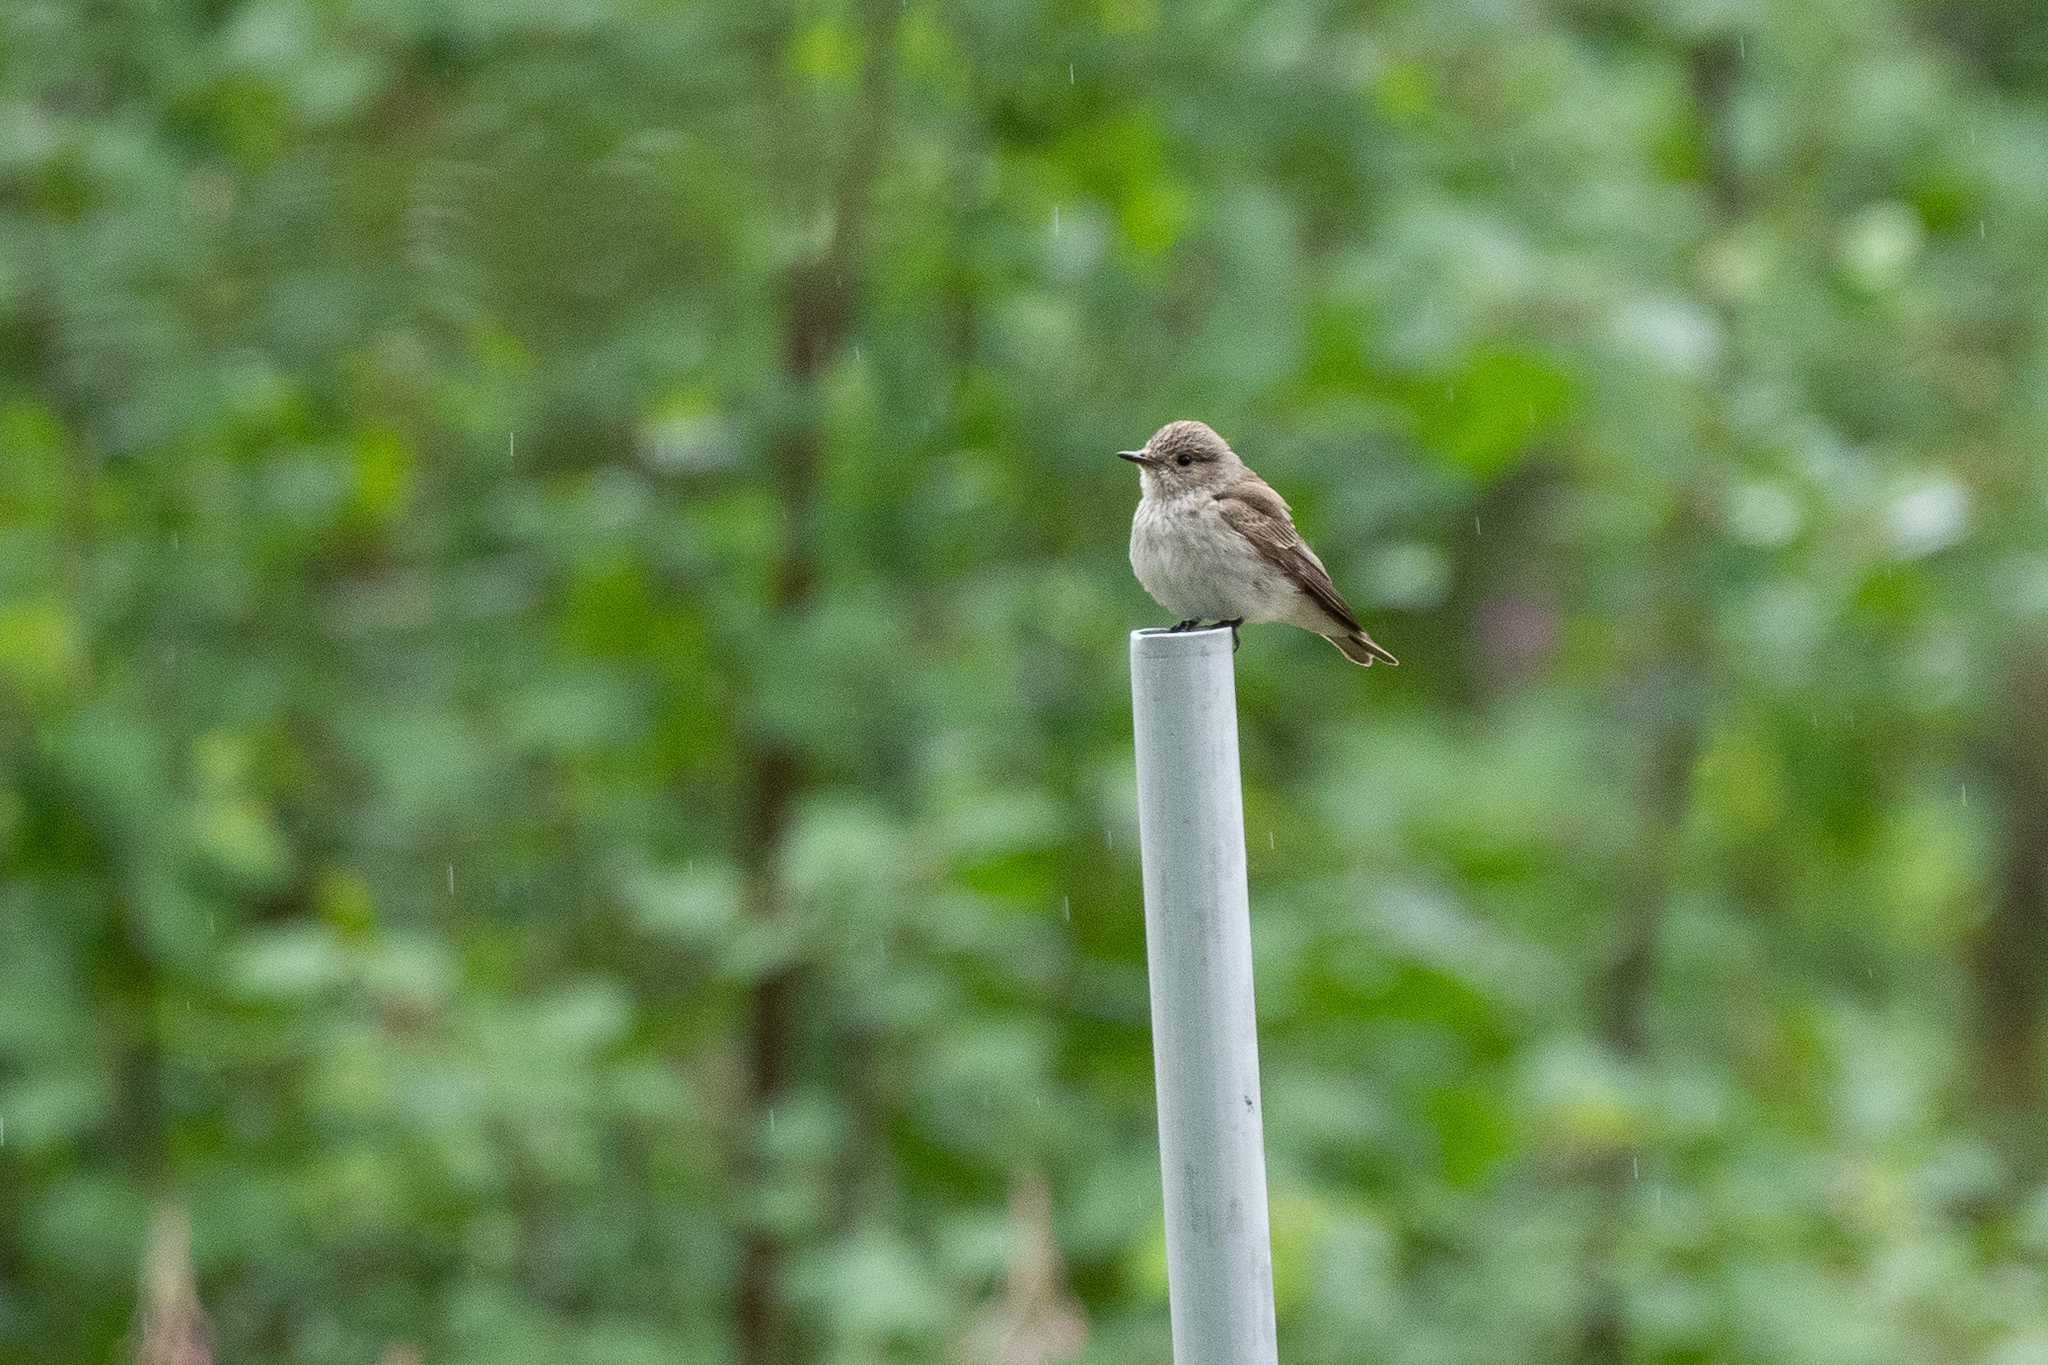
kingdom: Animalia
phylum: Chordata
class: Aves
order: Passeriformes
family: Muscicapidae
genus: Muscicapa
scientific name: Muscicapa striata
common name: Spotted flycatcher
